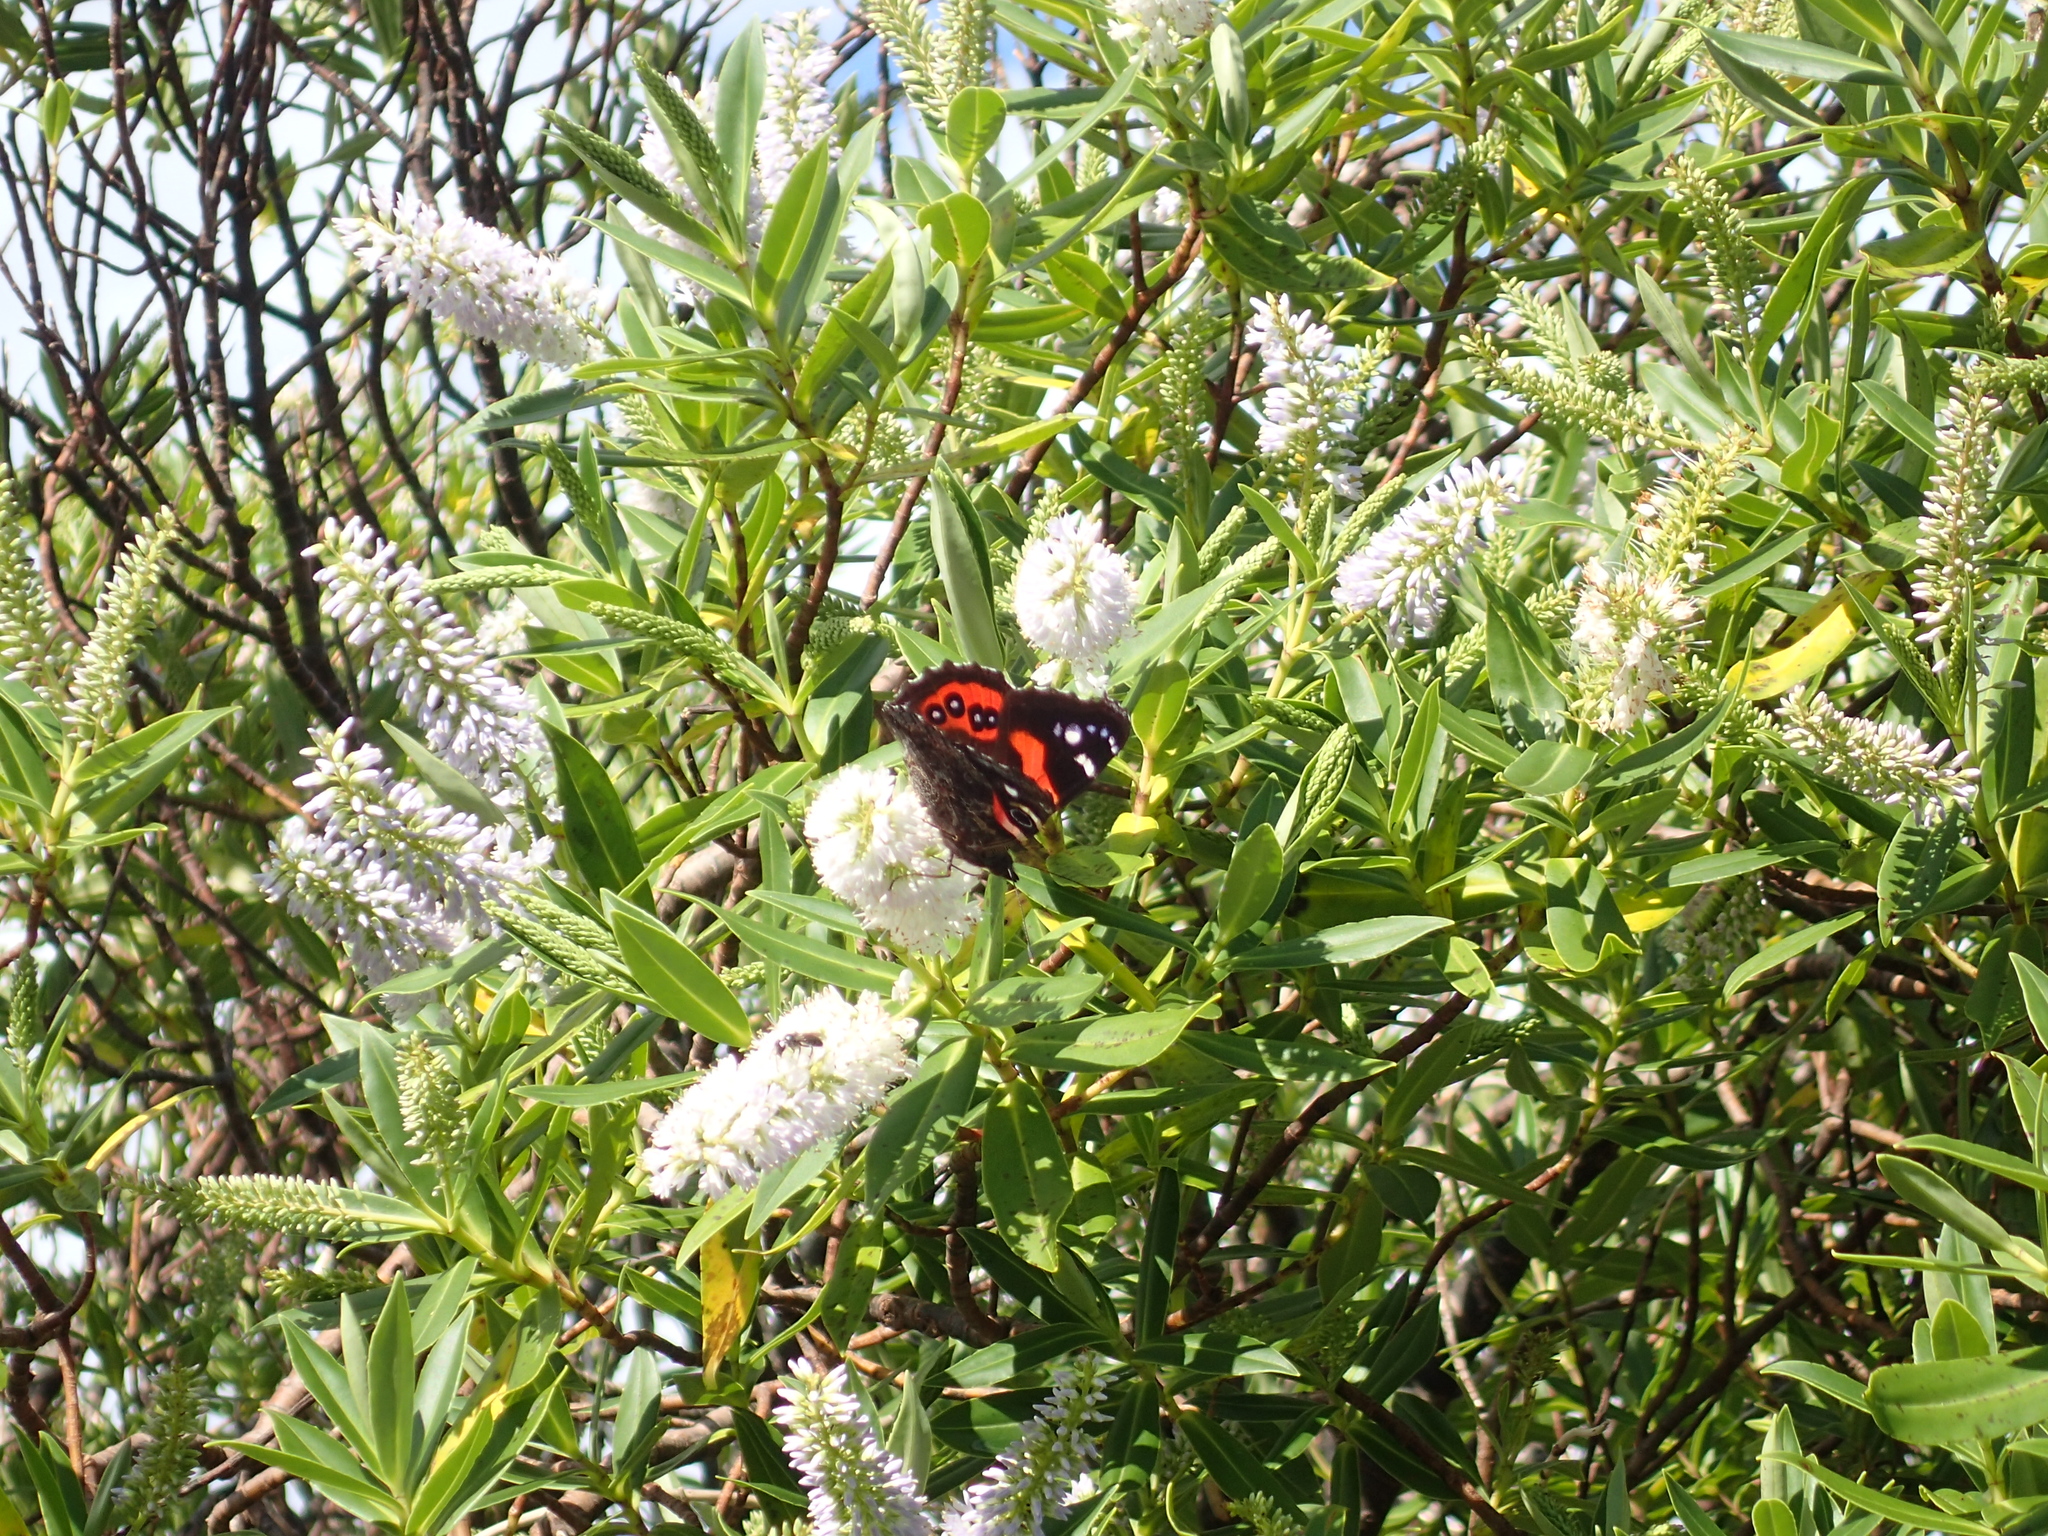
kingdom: Animalia
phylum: Arthropoda
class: Insecta
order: Lepidoptera
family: Nymphalidae
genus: Vanessa
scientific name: Vanessa gonerilla
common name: New zealand red admiral
